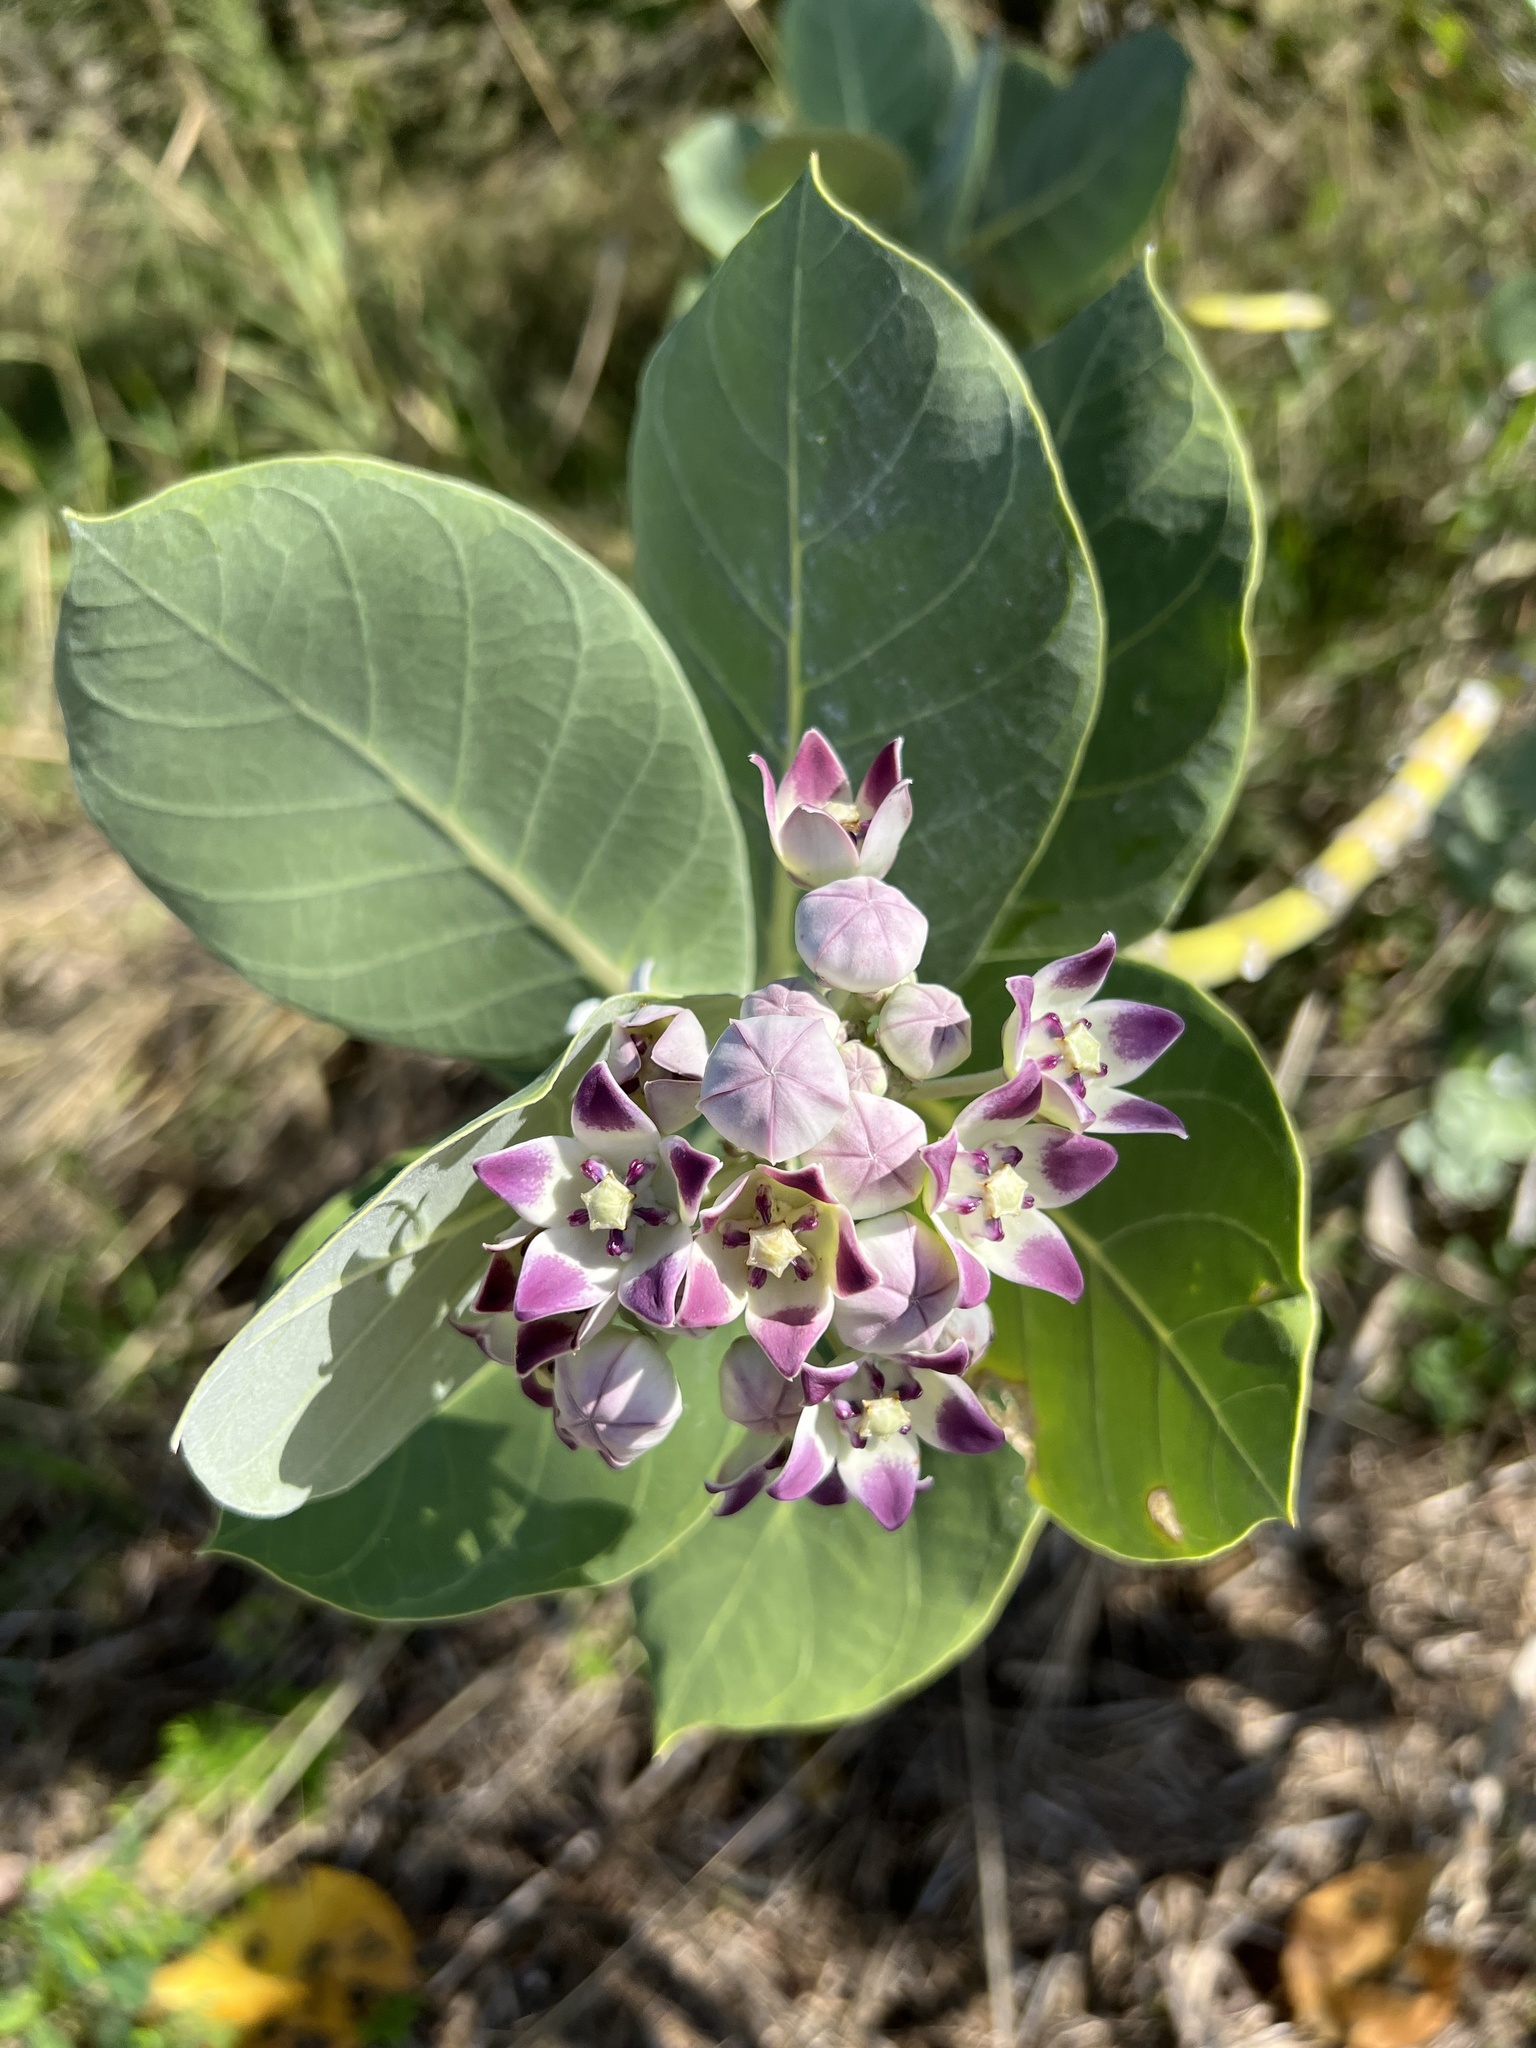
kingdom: Plantae
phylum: Tracheophyta
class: Magnoliopsida
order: Gentianales
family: Apocynaceae
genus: Calotropis
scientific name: Calotropis procera
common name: Roostertree
